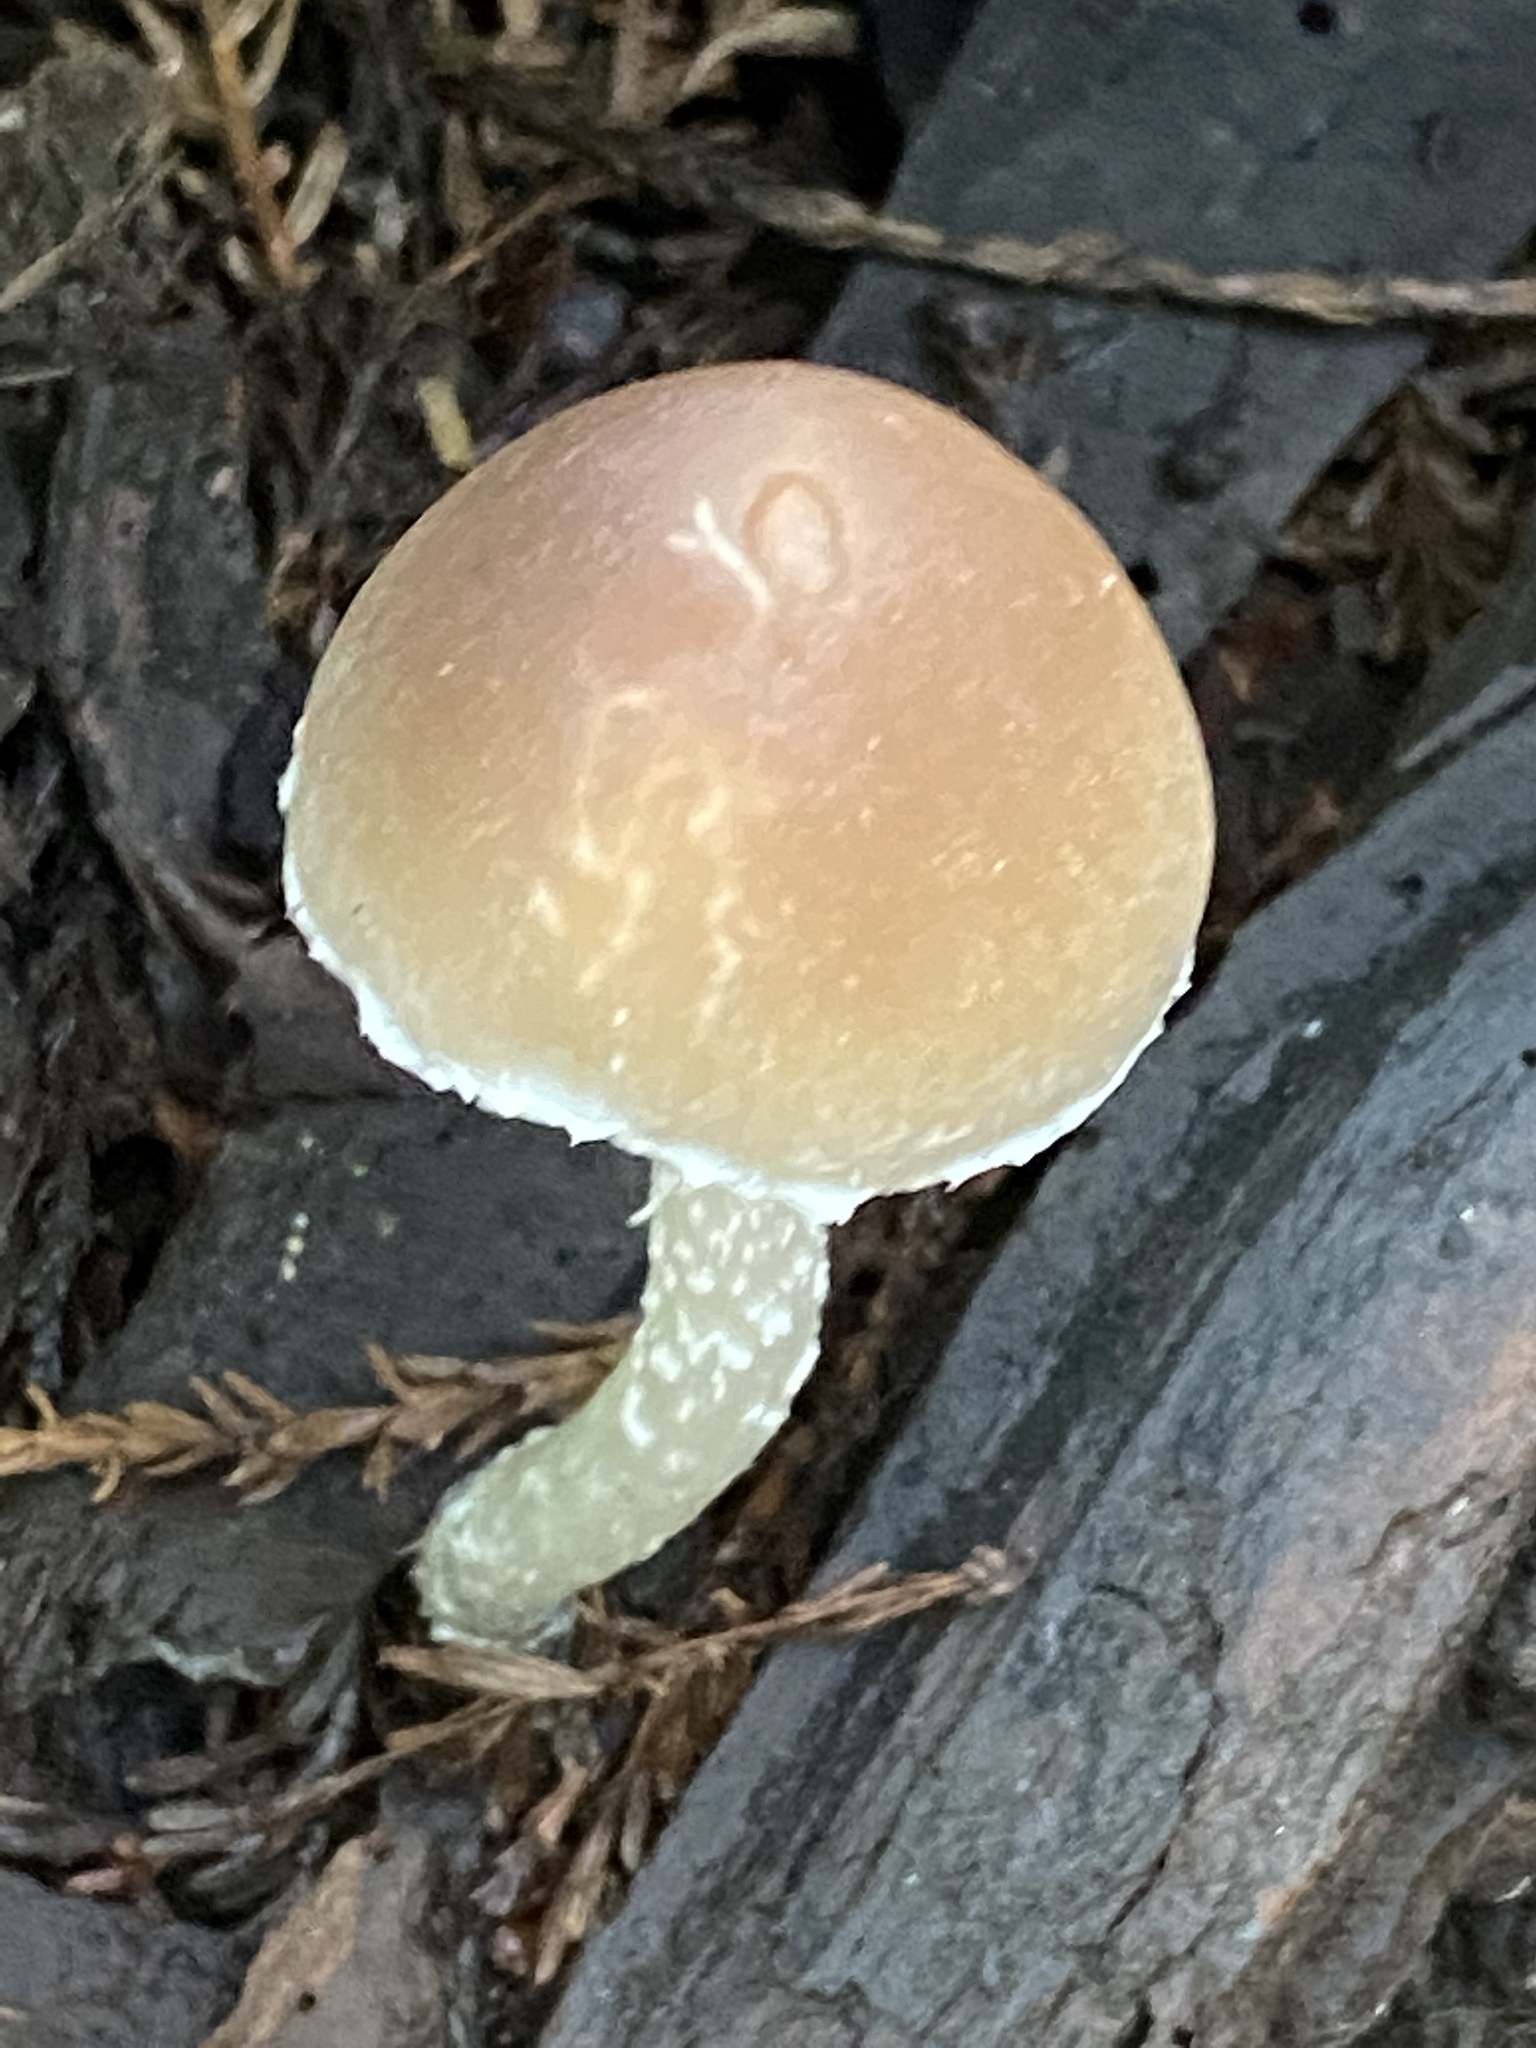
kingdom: Fungi
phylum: Basidiomycota
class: Agaricomycetes
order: Agaricales
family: Psathyrellaceae
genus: Psathyrella
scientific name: Psathyrella longipes
